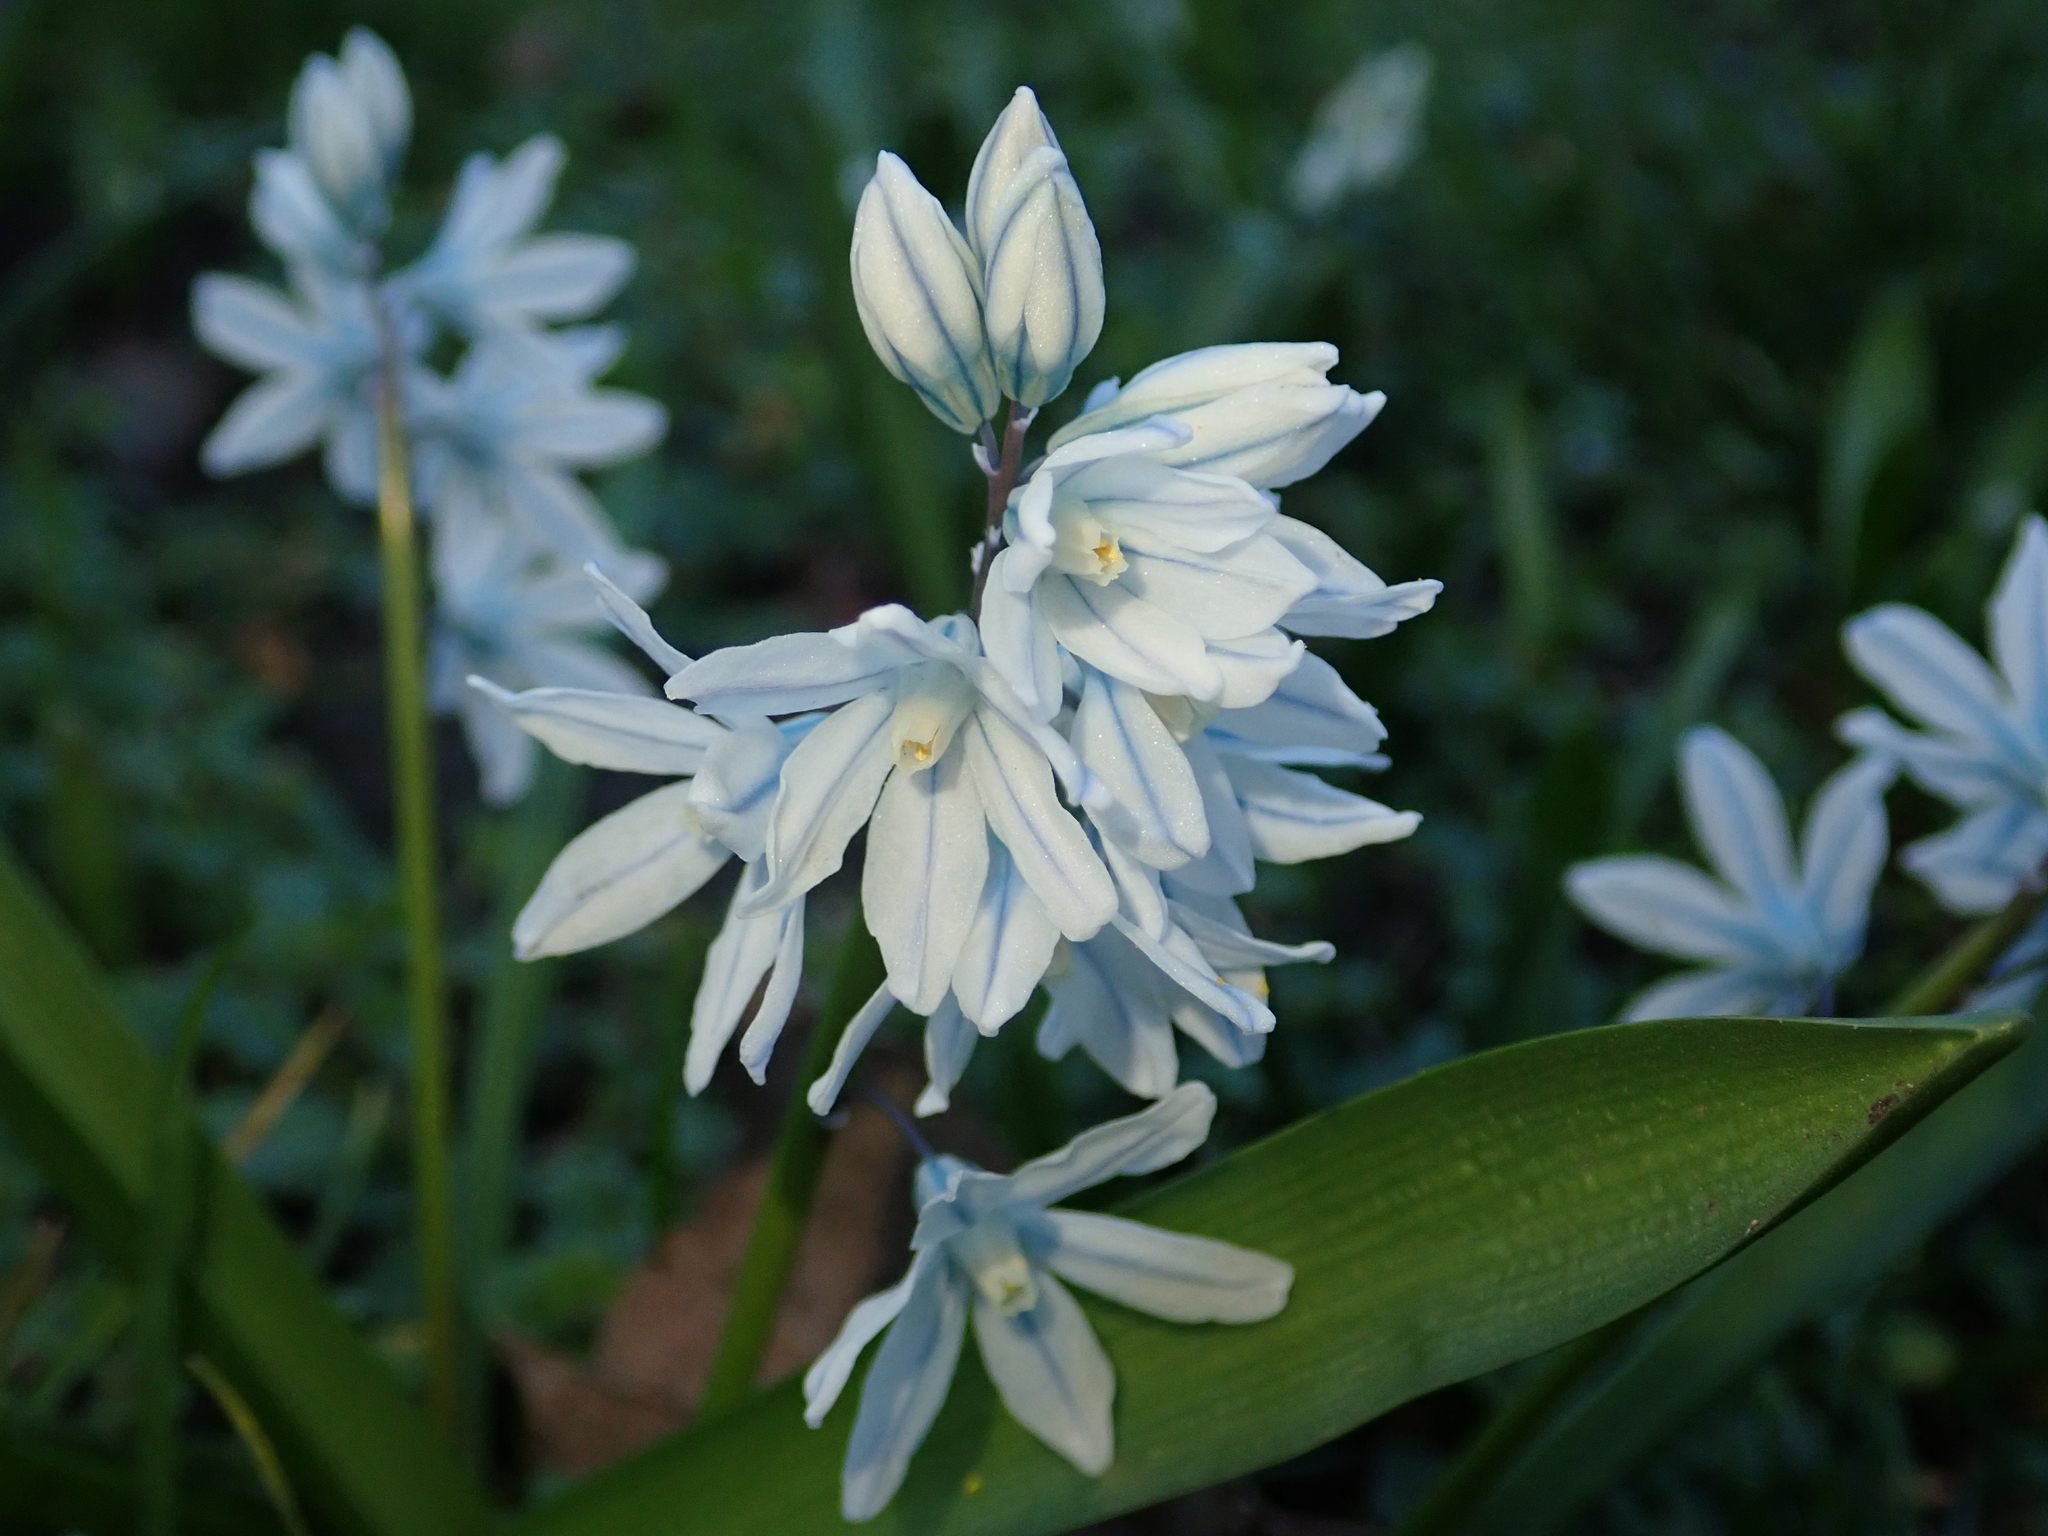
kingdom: Plantae
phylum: Tracheophyta
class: Liliopsida
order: Asparagales
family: Asparagaceae
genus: Puschkinia
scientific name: Puschkinia scilloides
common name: Striped squill
